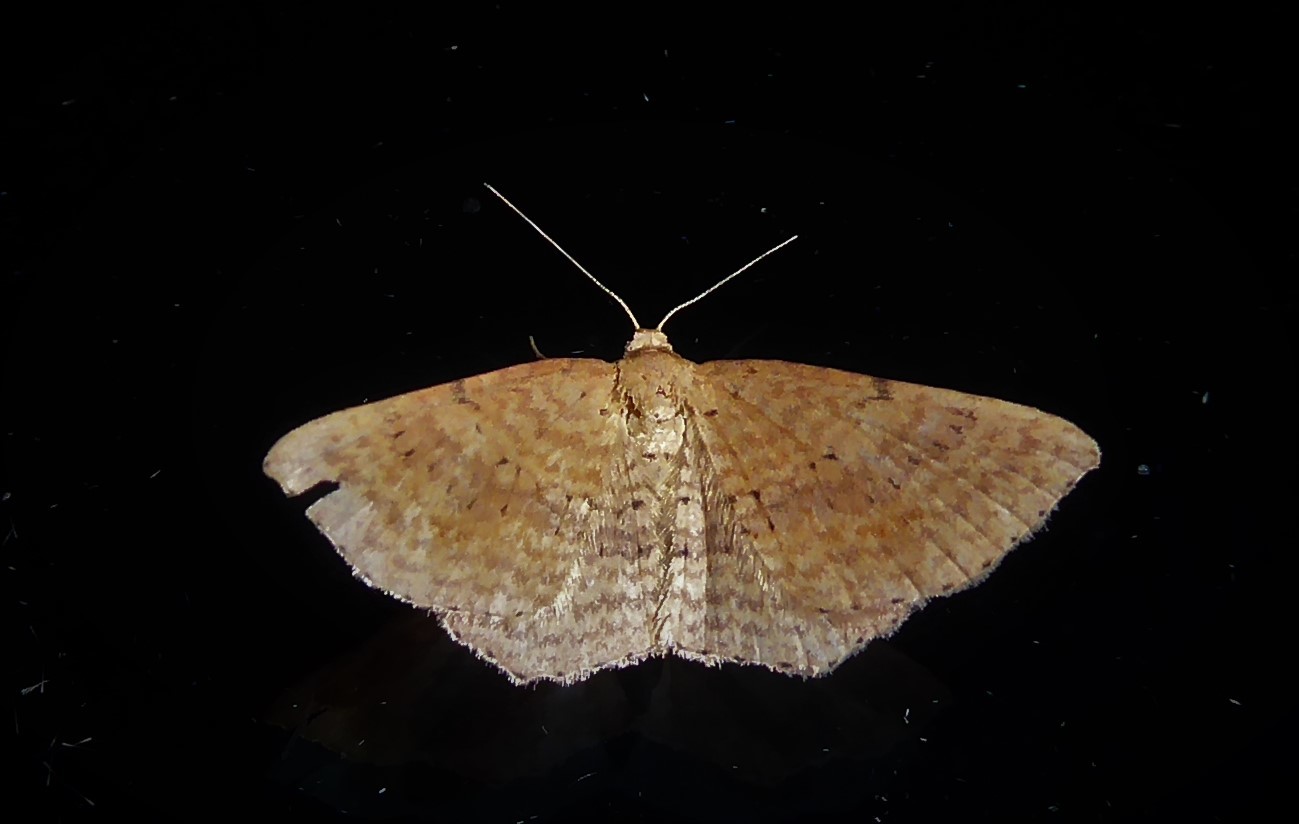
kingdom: Animalia
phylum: Arthropoda
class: Insecta
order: Lepidoptera
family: Geometridae
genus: Epicyme
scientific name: Epicyme rubropunctaria
